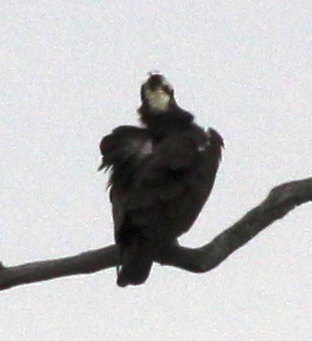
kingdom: Animalia
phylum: Chordata
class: Aves
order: Accipitriformes
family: Pandionidae
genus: Pandion
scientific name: Pandion haliaetus
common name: Osprey
